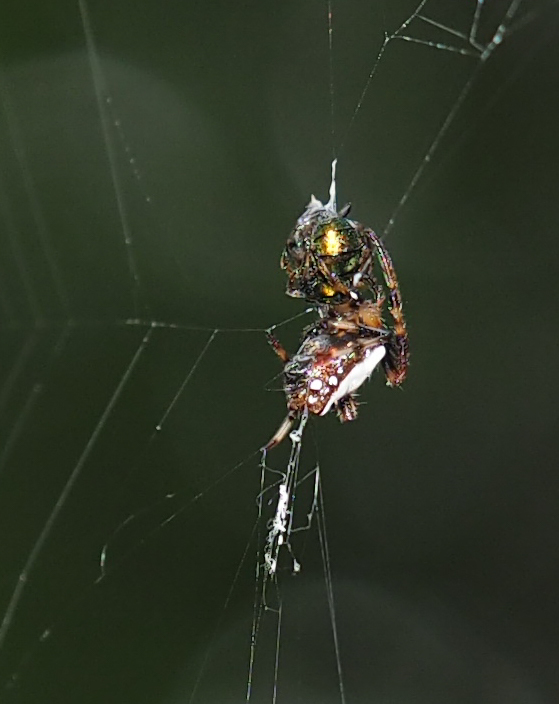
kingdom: Animalia
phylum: Arthropoda
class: Arachnida
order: Araneae
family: Araneidae
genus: Verrucosa
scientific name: Verrucosa arenata
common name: Orb weavers
